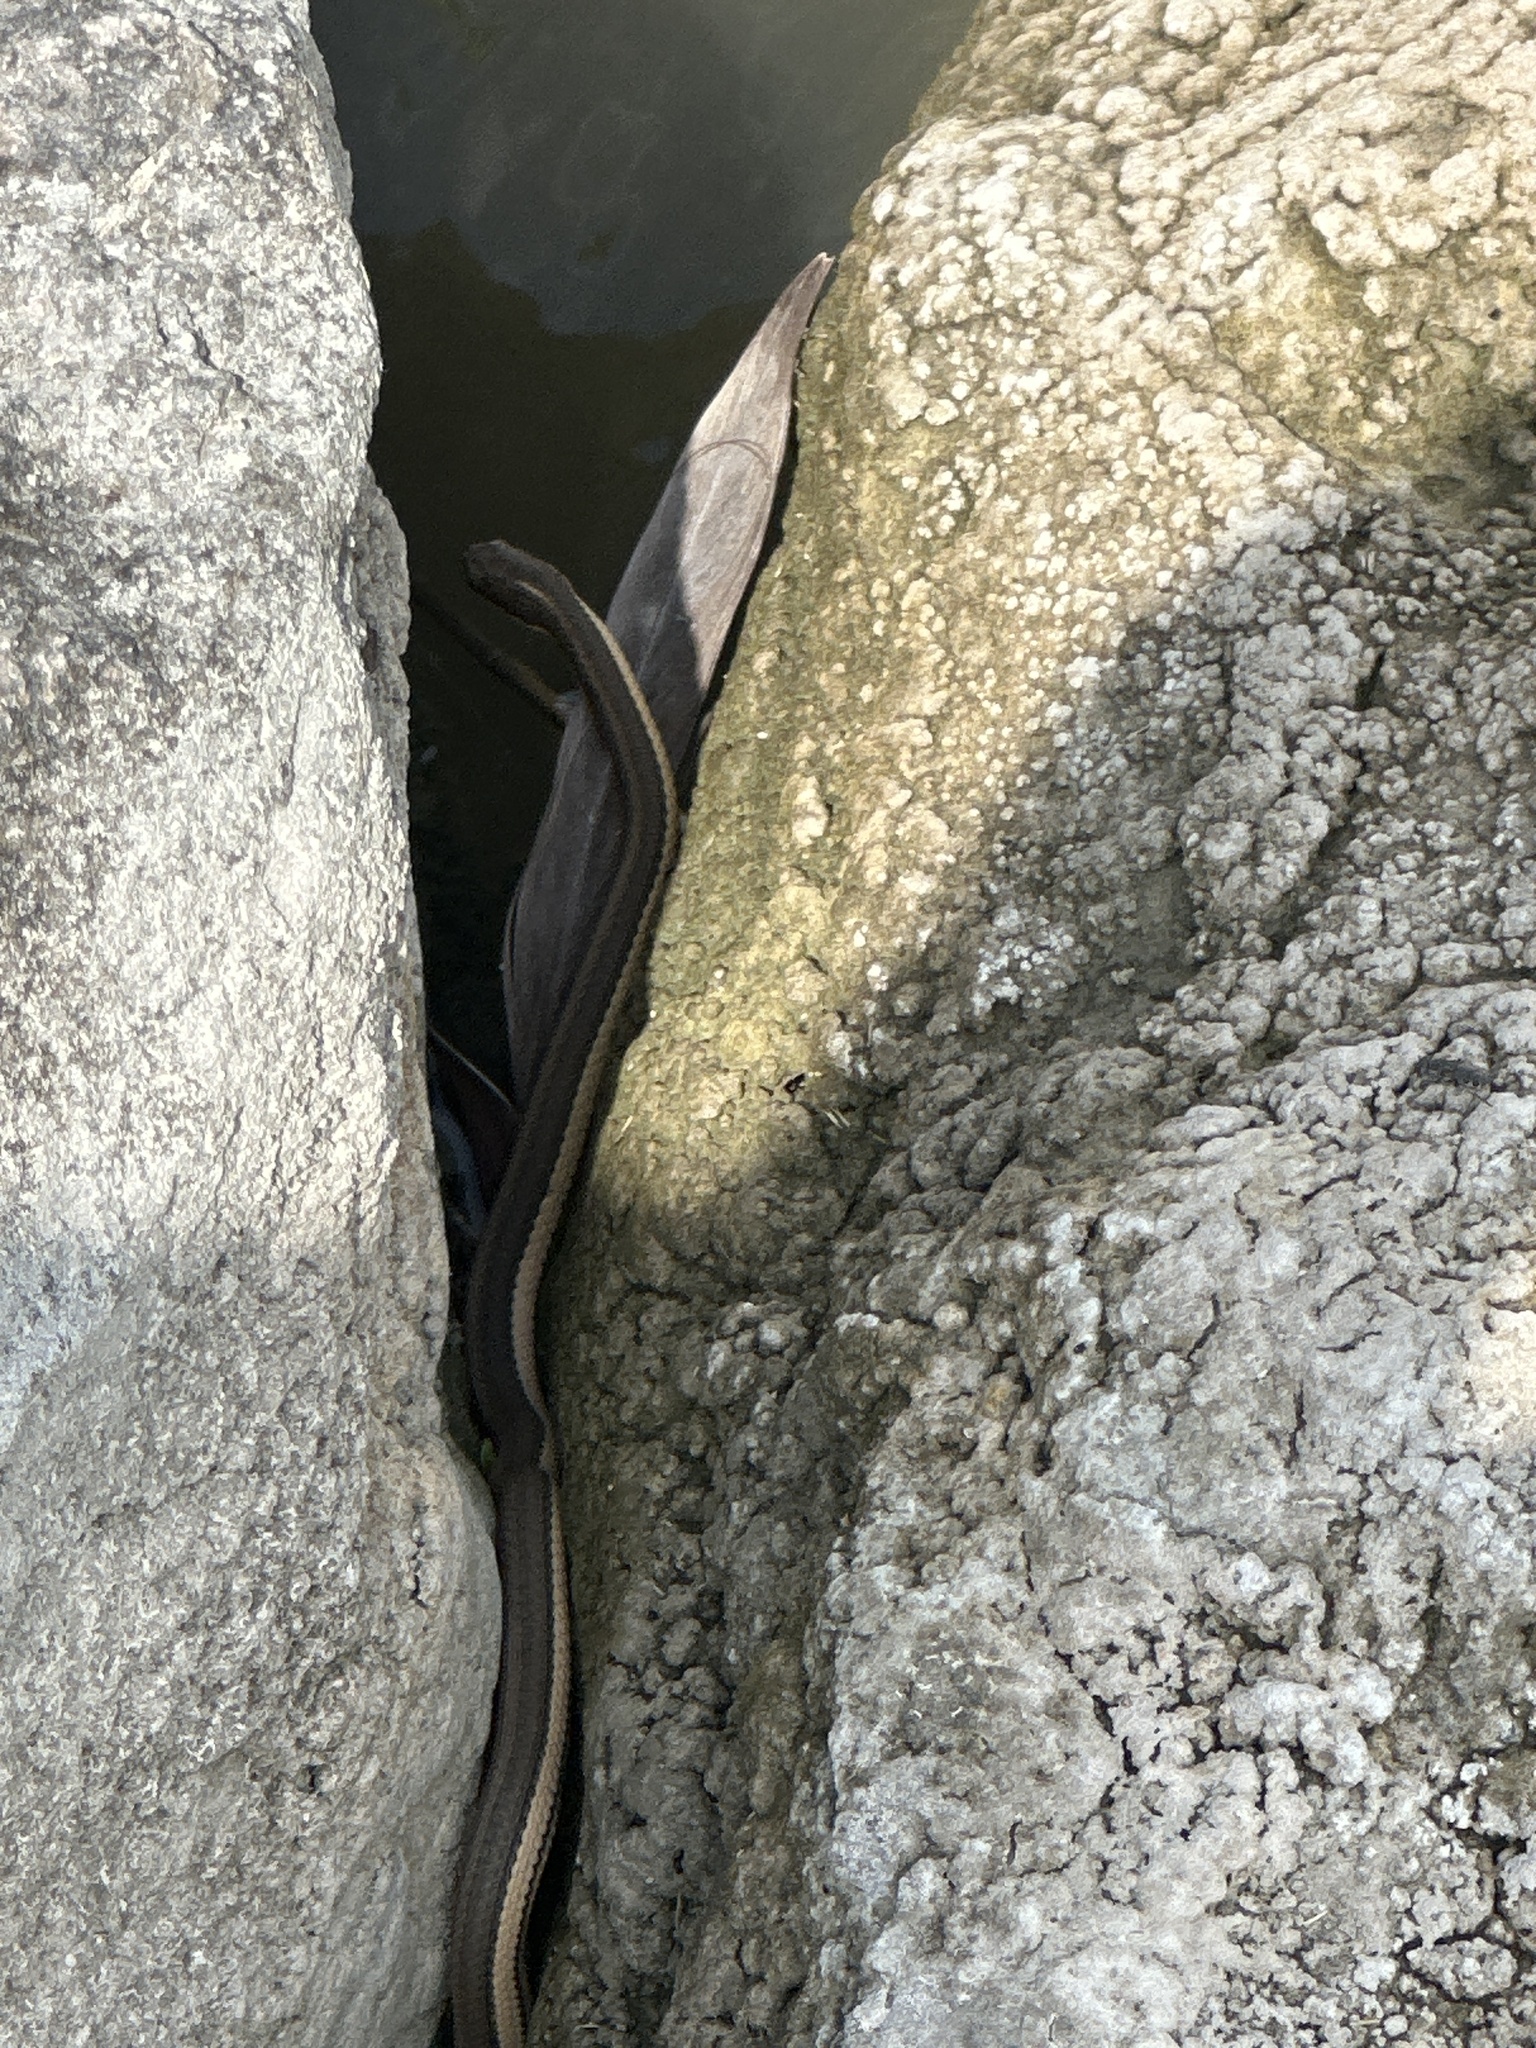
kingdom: Animalia
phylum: Chordata
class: Squamata
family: Colubridae
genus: Regina
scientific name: Regina grahamii
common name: Graham's crayfish snake
